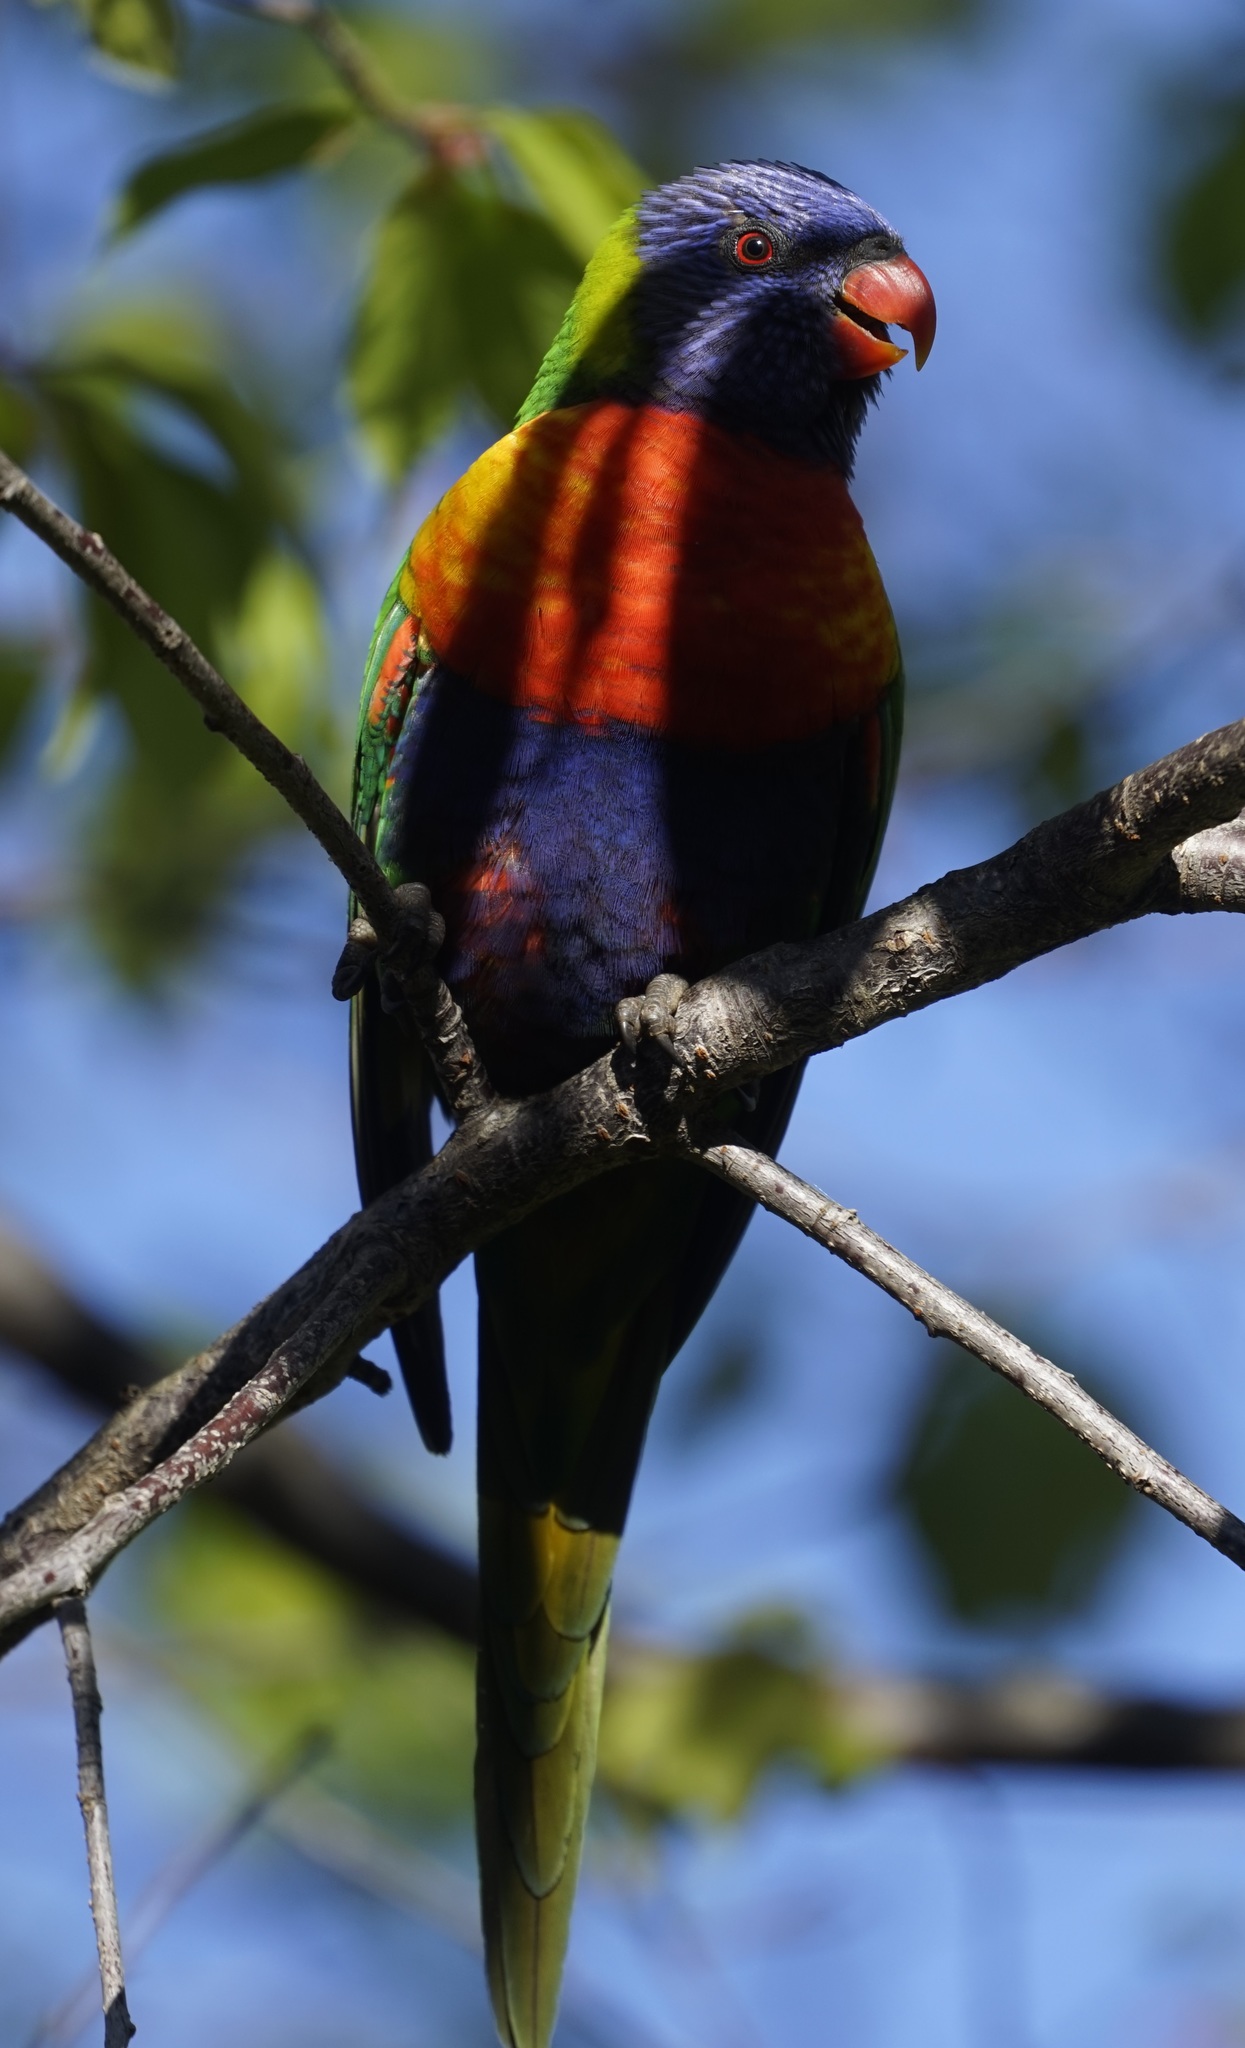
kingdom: Animalia
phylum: Chordata
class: Aves
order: Psittaciformes
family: Psittacidae
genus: Trichoglossus
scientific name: Trichoglossus haematodus
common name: Coconut lorikeet
